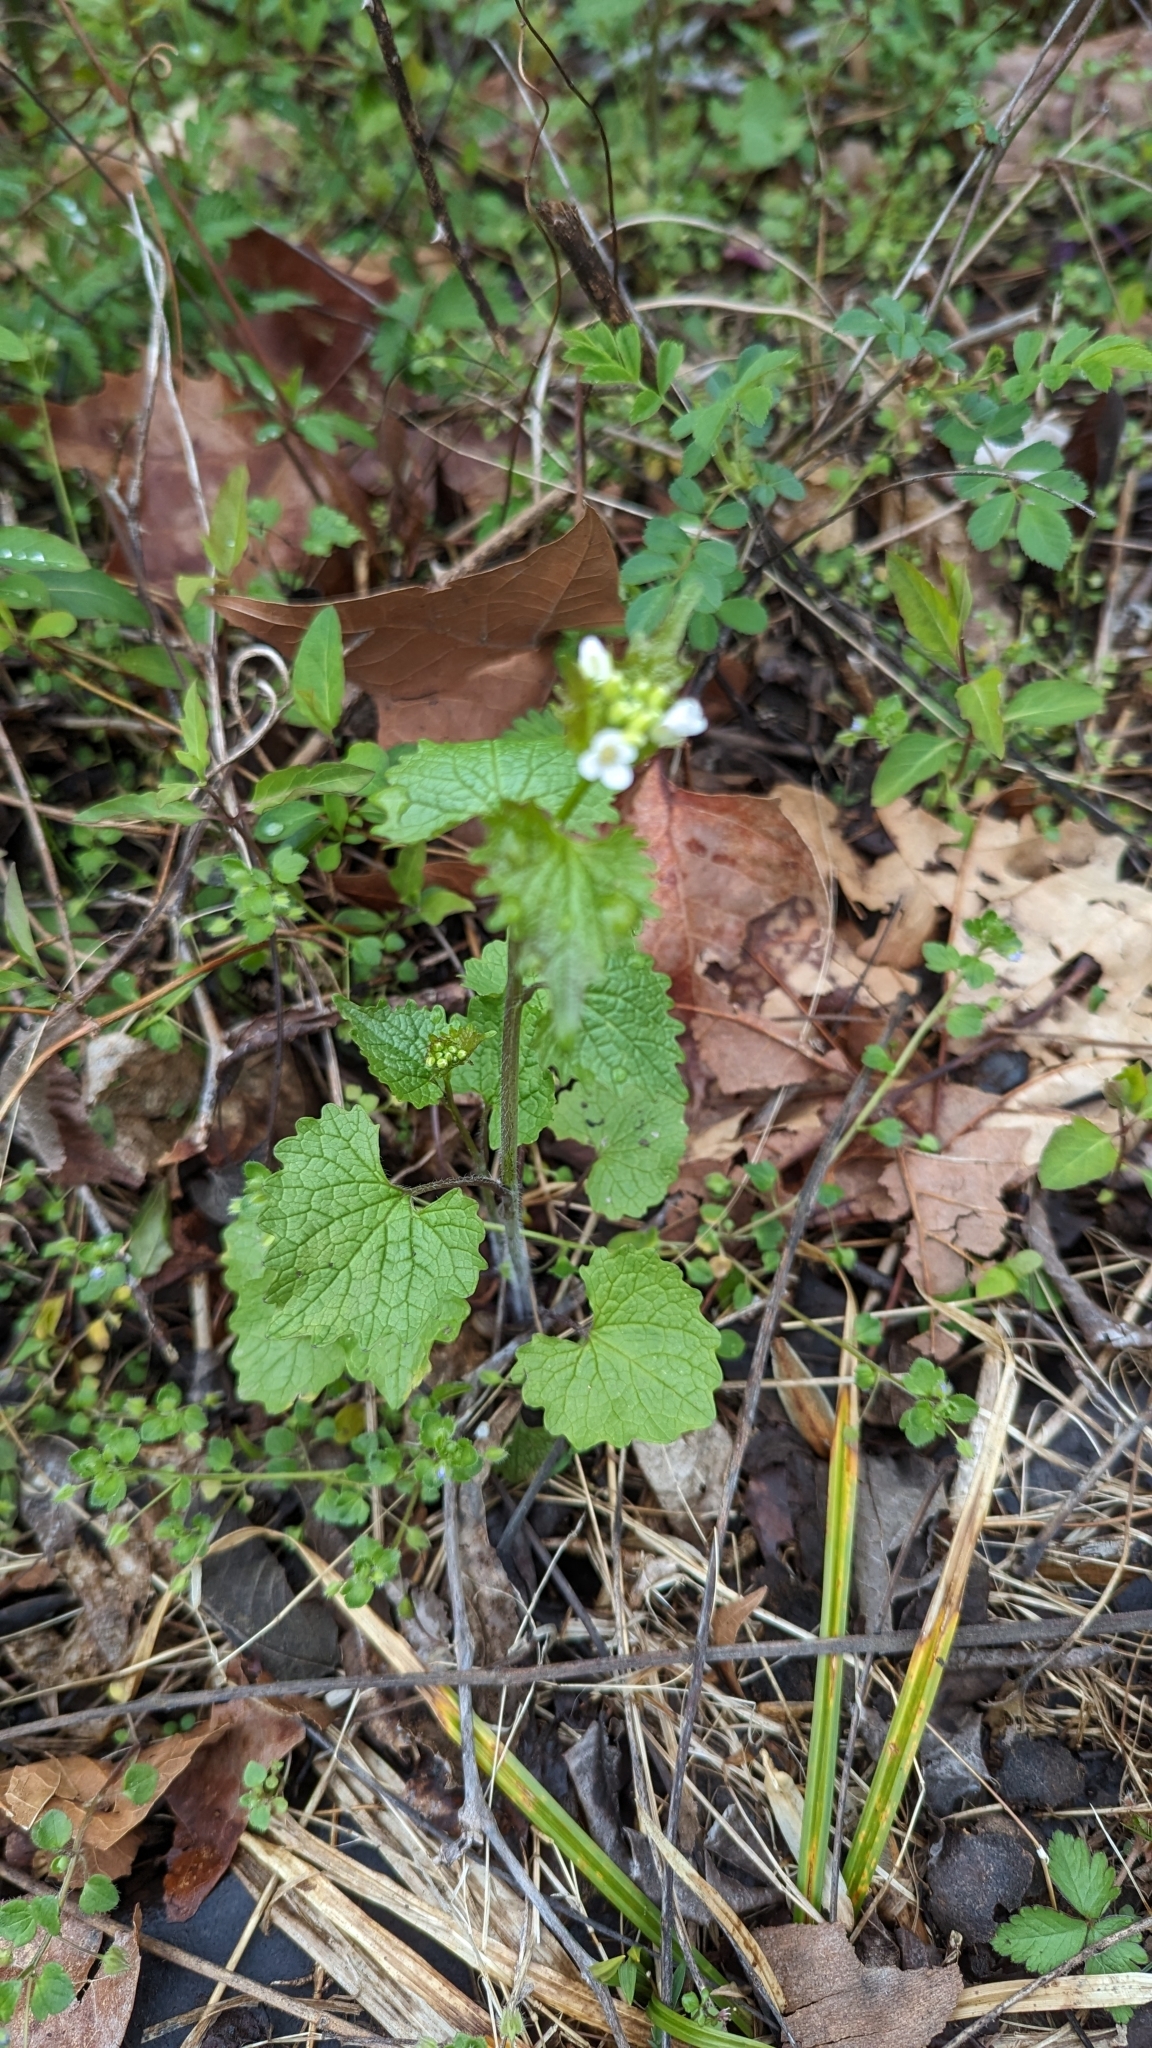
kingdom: Plantae
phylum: Tracheophyta
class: Magnoliopsida
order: Brassicales
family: Brassicaceae
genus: Alliaria
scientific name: Alliaria petiolata
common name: Garlic mustard
